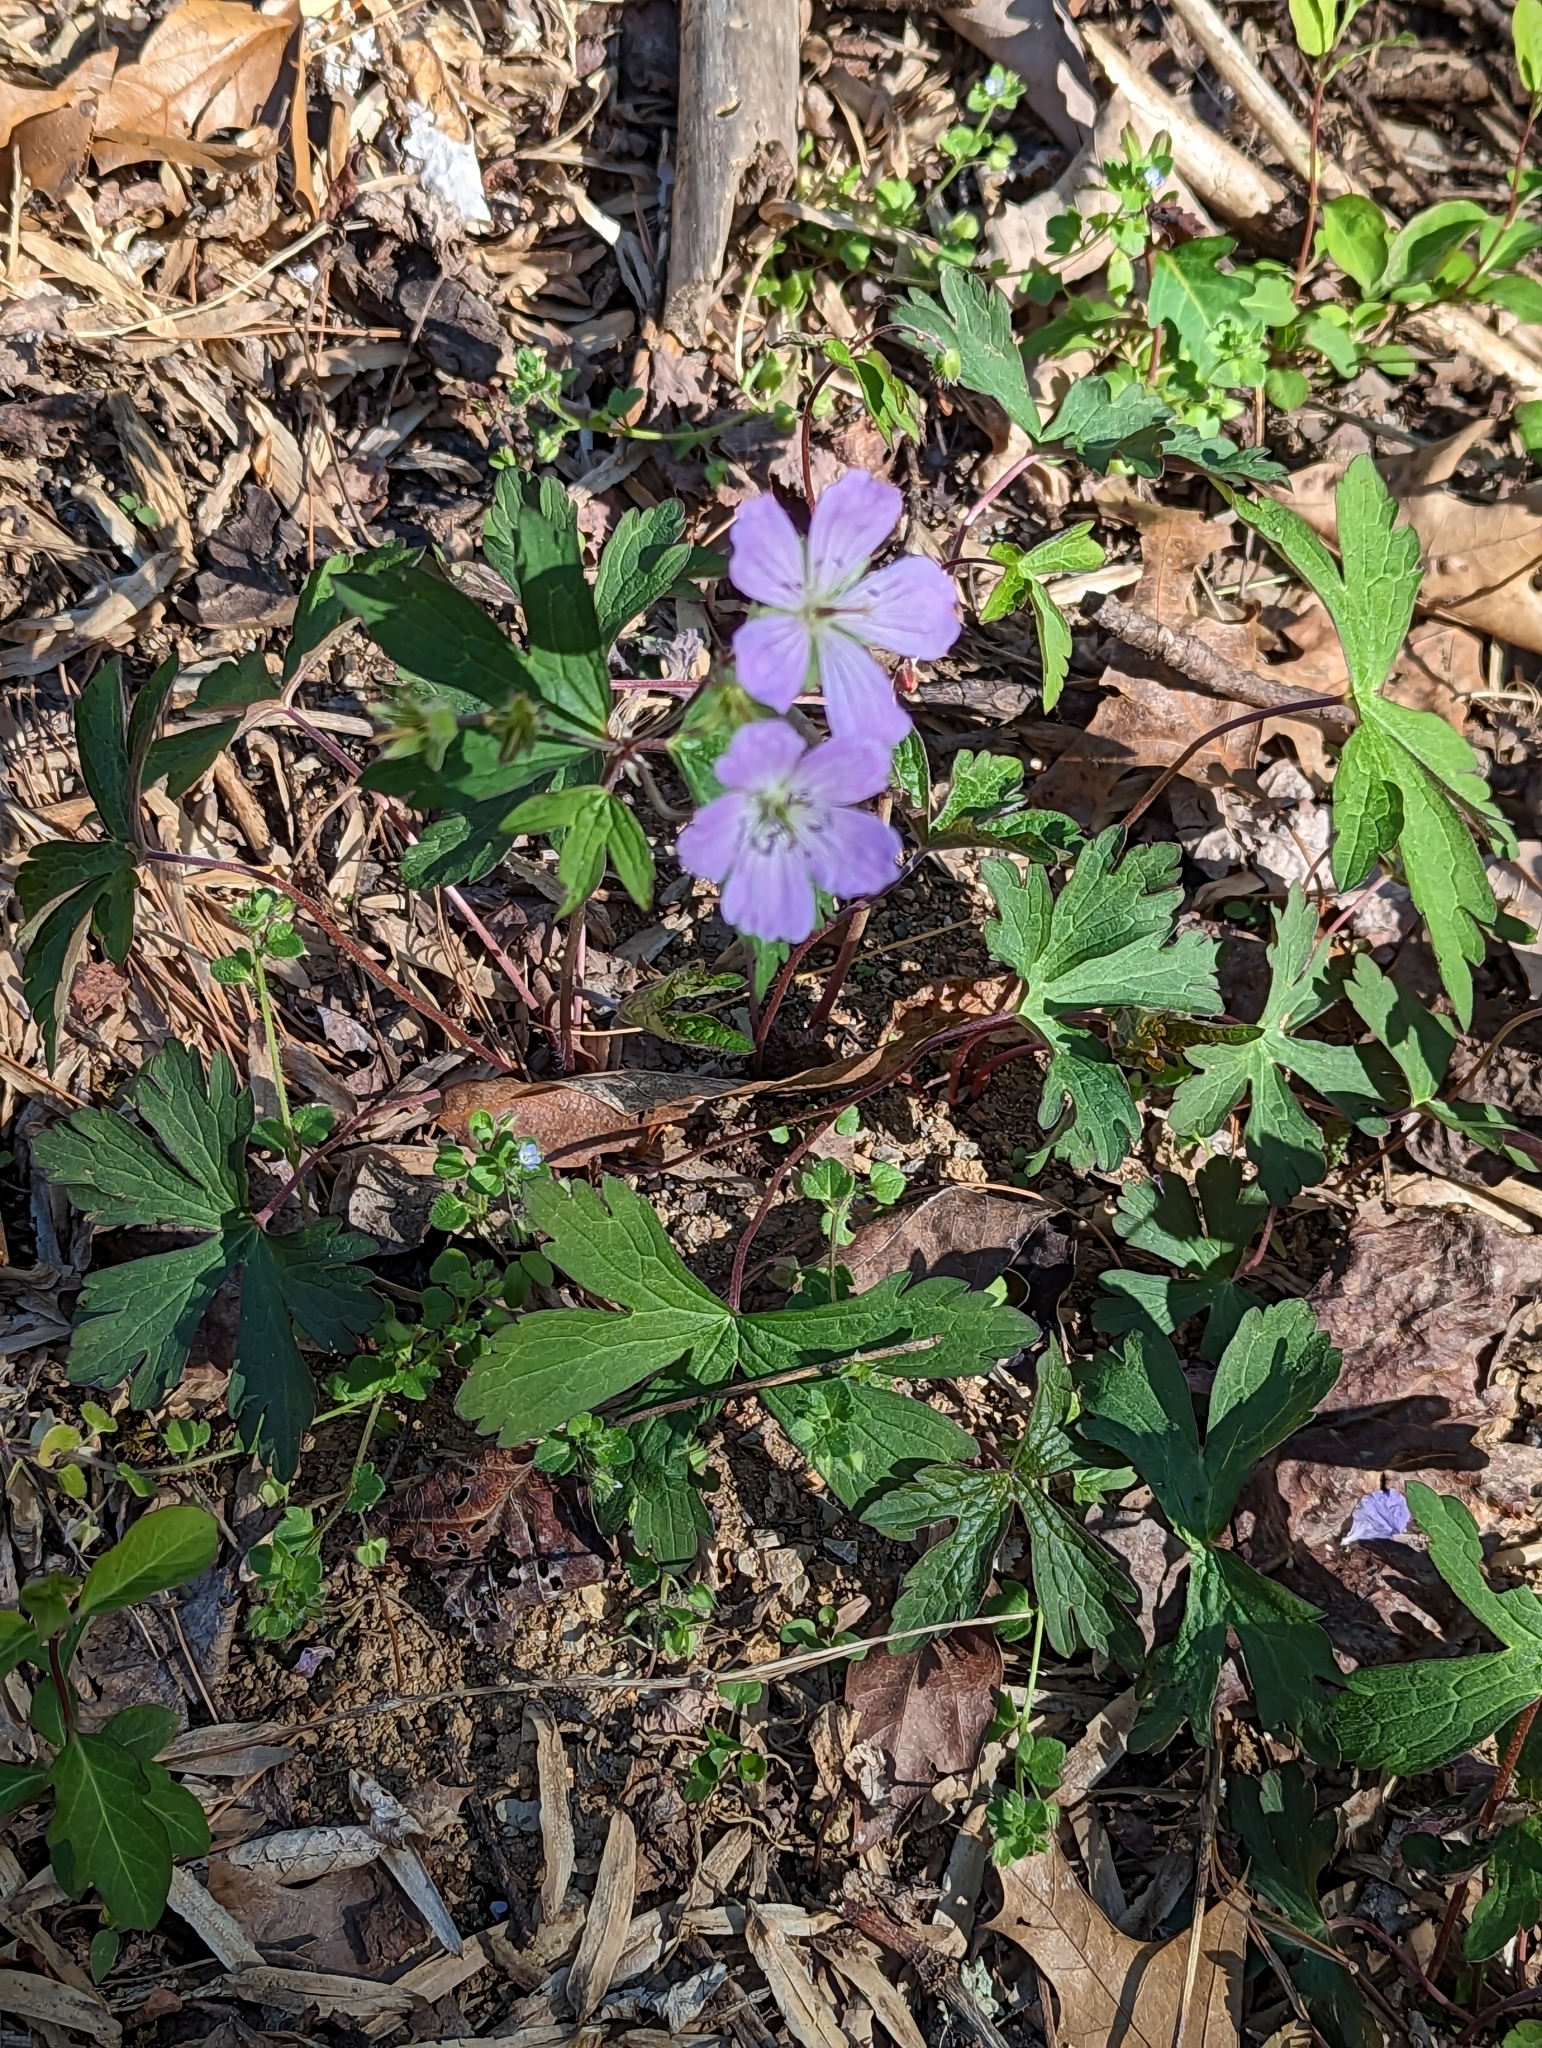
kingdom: Plantae
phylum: Tracheophyta
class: Magnoliopsida
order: Geraniales
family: Geraniaceae
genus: Geranium
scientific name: Geranium maculatum
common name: Spotted geranium
